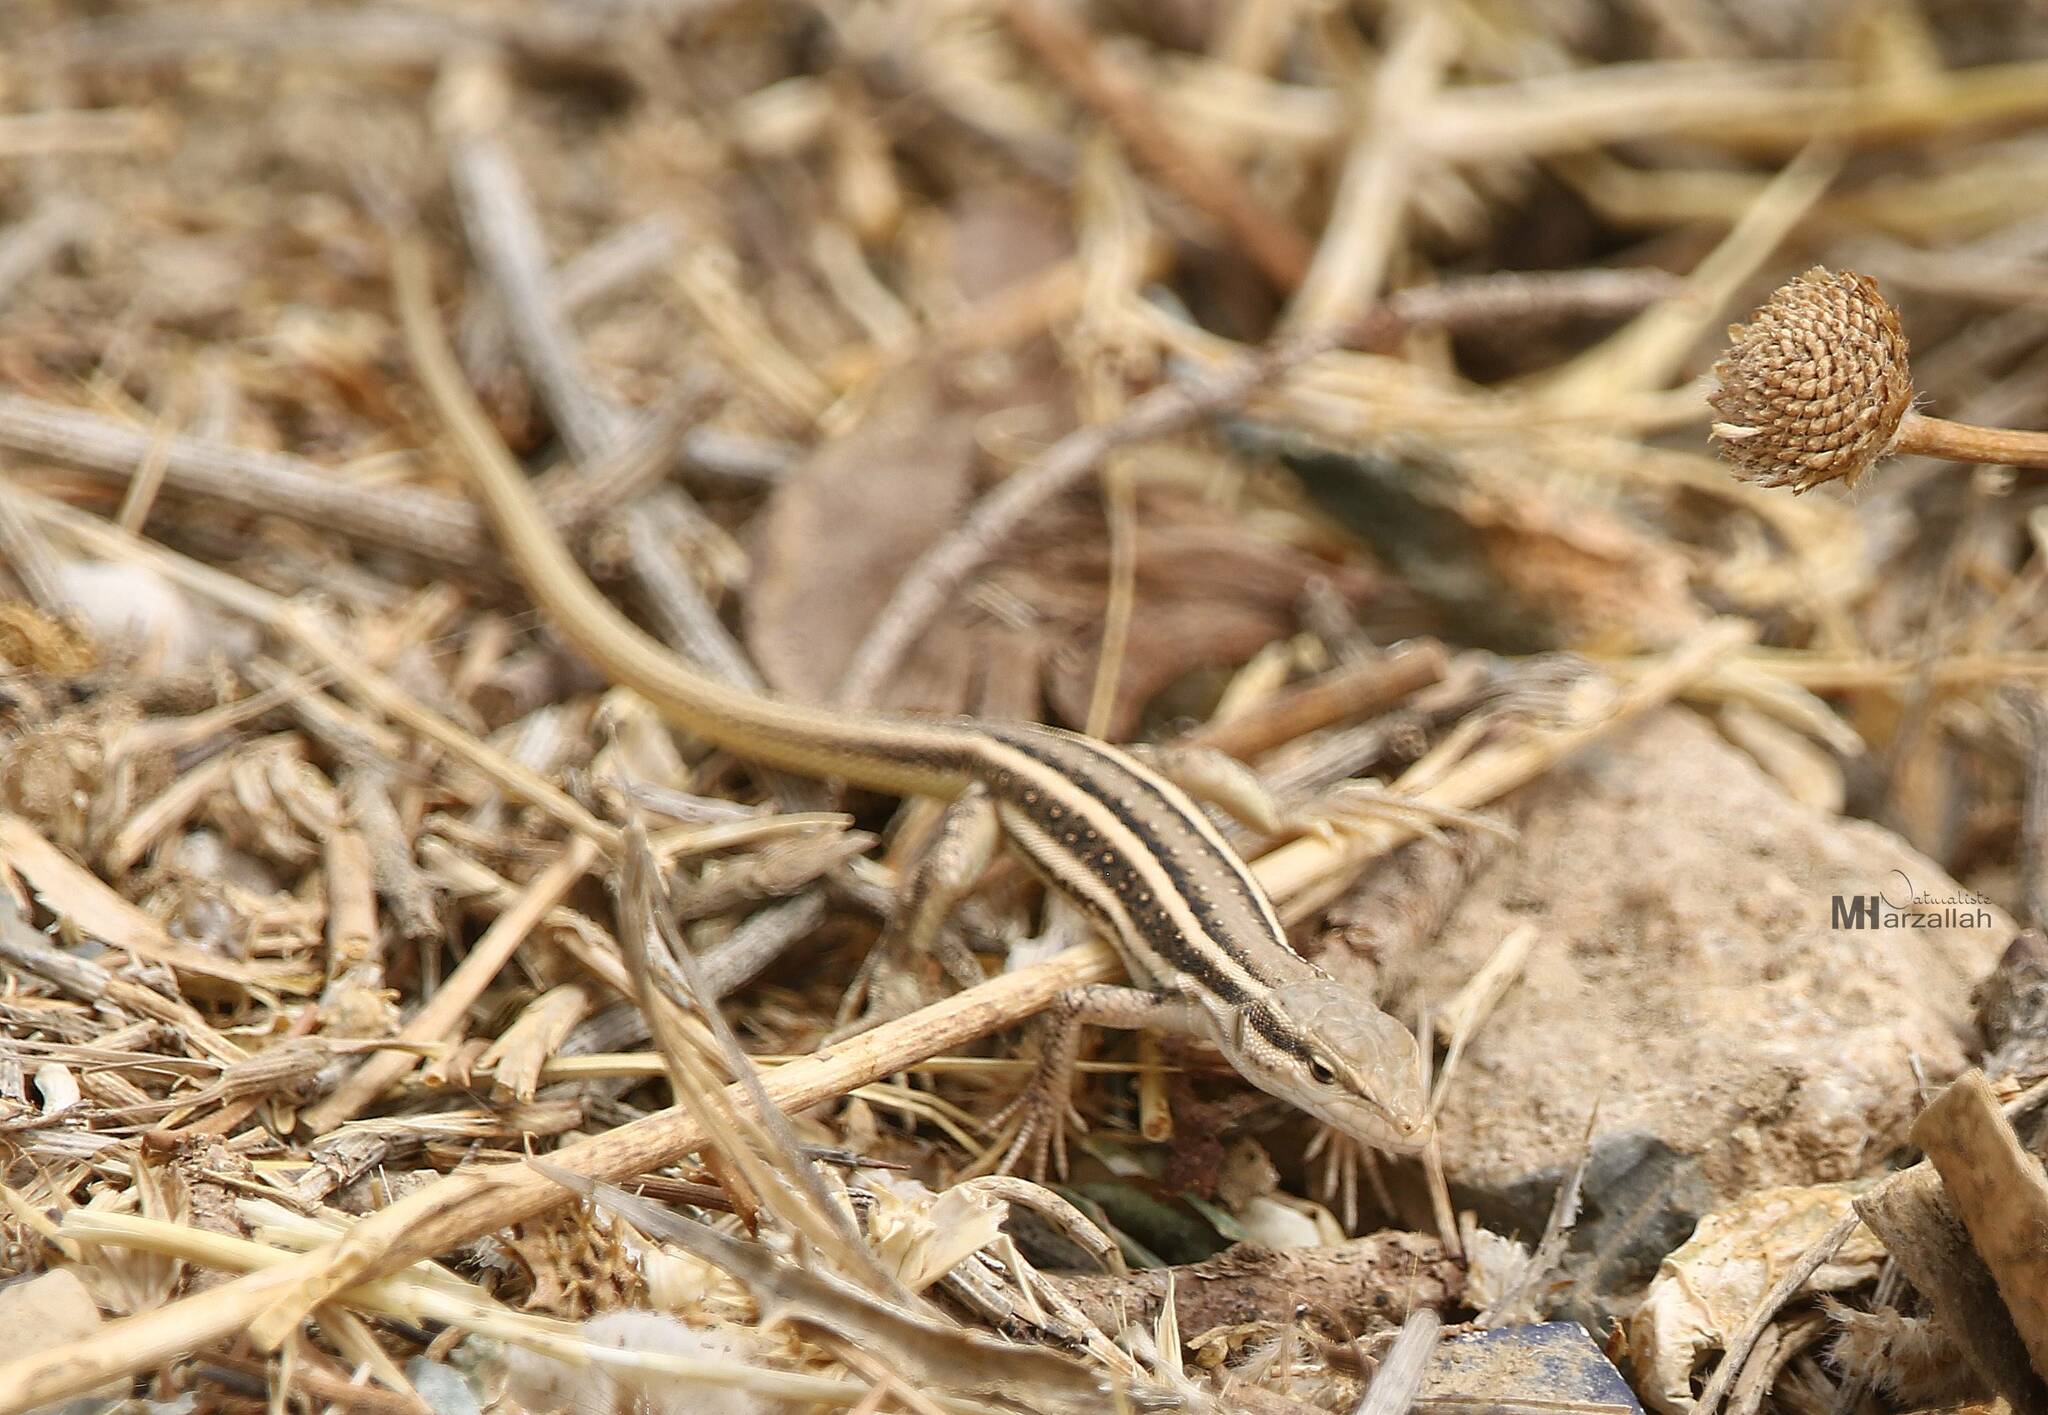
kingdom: Animalia
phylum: Chordata
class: Squamata
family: Lacertidae
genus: Mesalina
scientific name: Mesalina olivieri
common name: Oliver's desert racer
